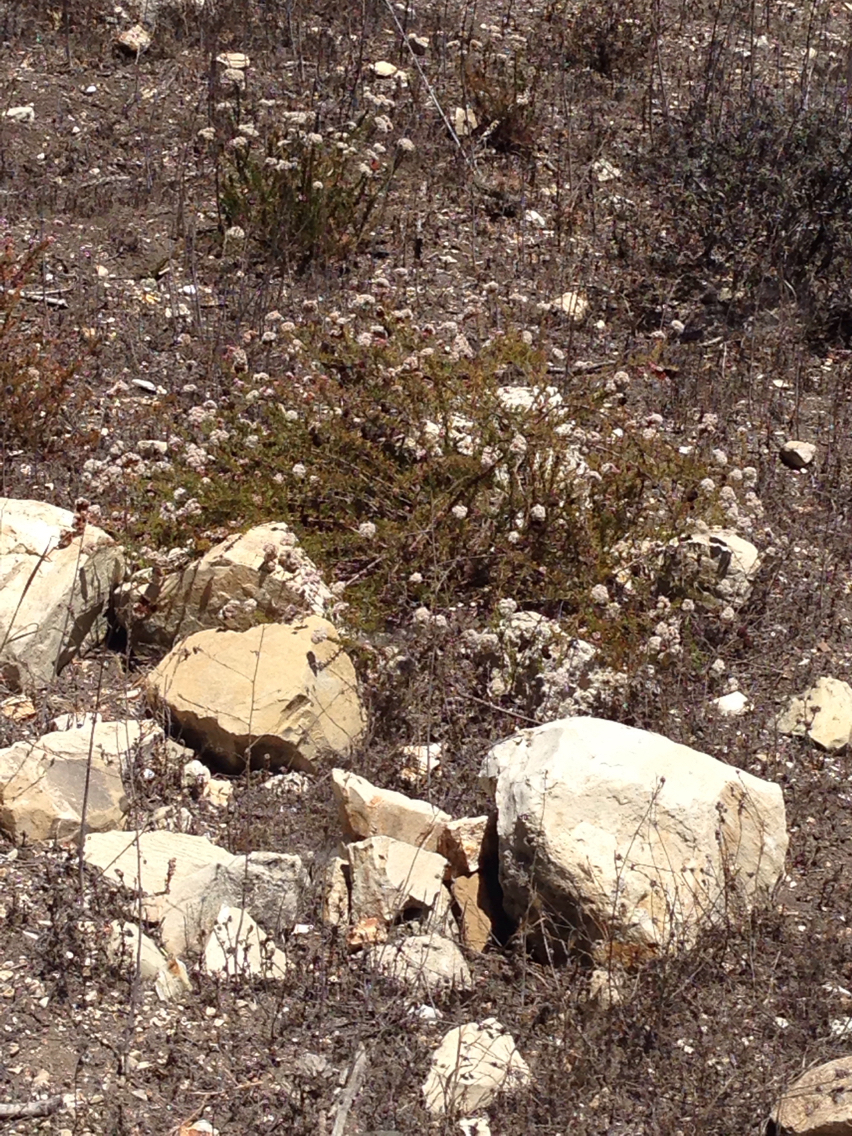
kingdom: Plantae
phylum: Tracheophyta
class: Magnoliopsida
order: Caryophyllales
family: Polygonaceae
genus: Eriogonum
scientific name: Eriogonum fasciculatum
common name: California wild buckwheat
